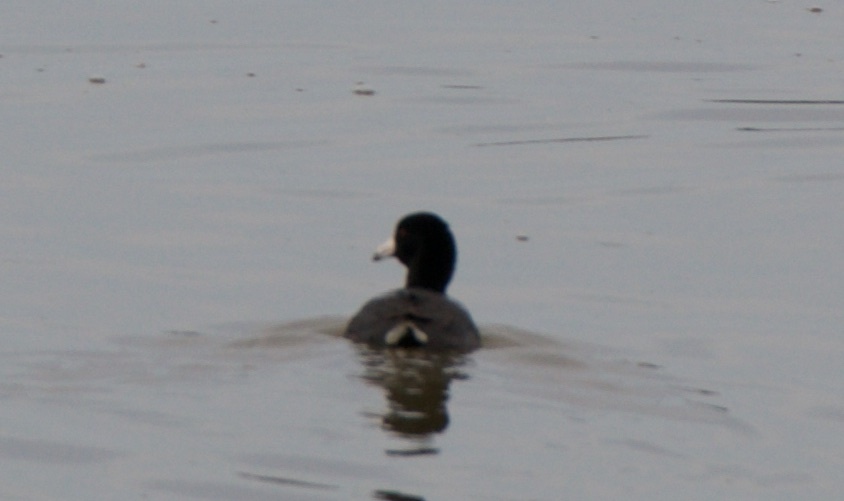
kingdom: Animalia
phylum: Chordata
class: Aves
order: Gruiformes
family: Rallidae
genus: Fulica
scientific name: Fulica americana
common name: American coot
